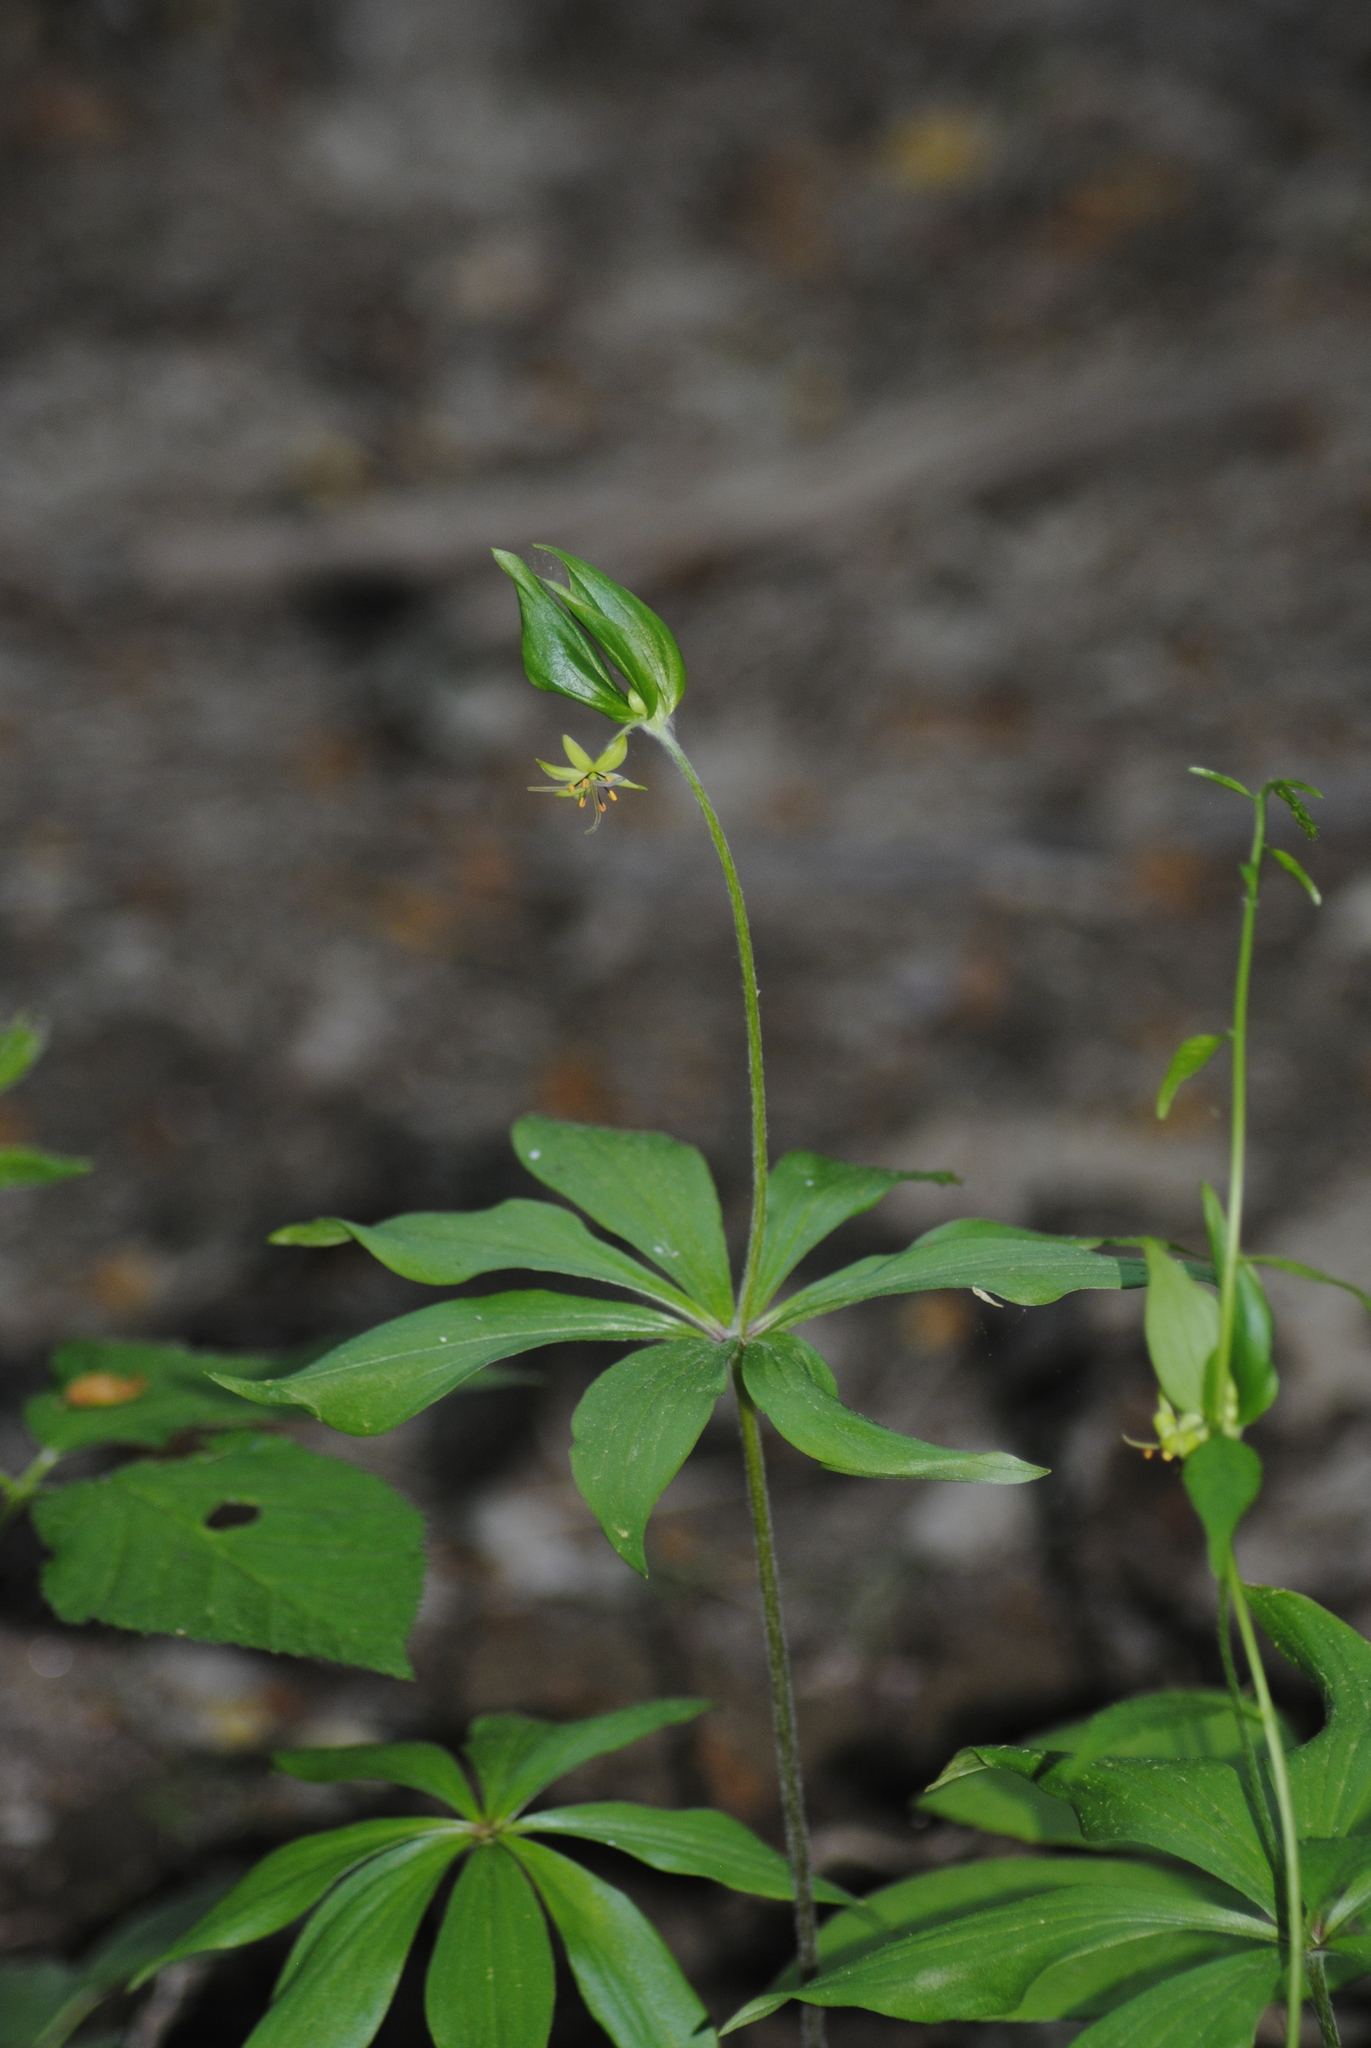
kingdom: Plantae
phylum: Tracheophyta
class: Liliopsida
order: Liliales
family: Liliaceae
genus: Medeola
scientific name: Medeola virginiana
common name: Indian cucumber-root
